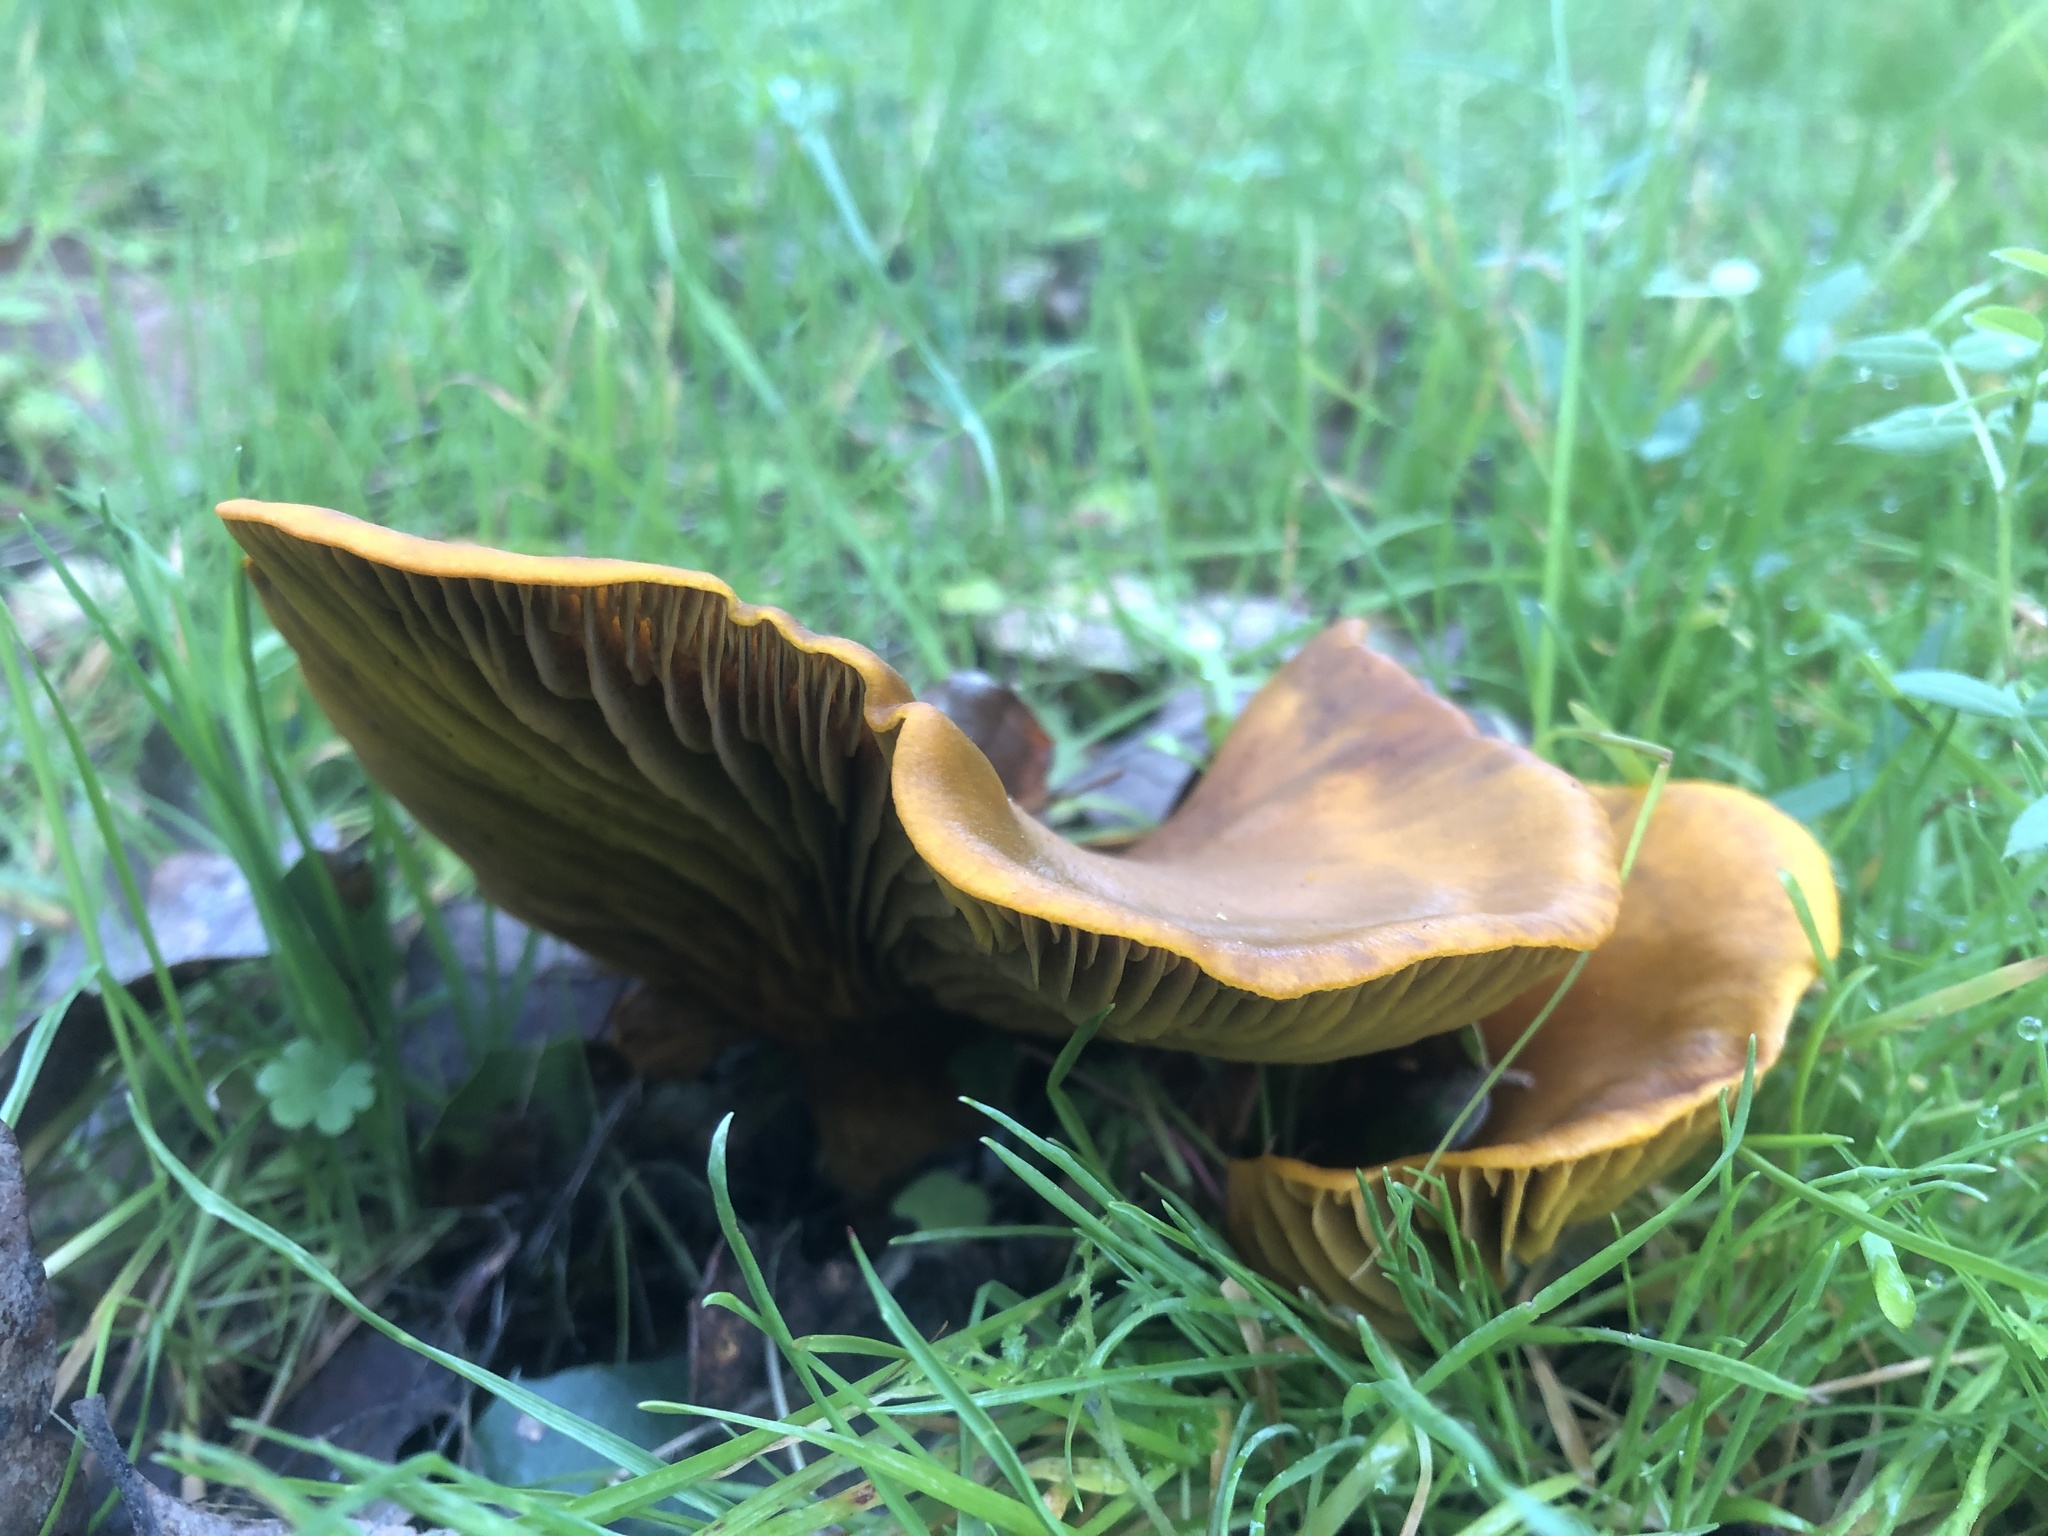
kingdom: Fungi
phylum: Basidiomycota
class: Agaricomycetes
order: Agaricales
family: Omphalotaceae
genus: Omphalotus
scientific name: Omphalotus olivascens
